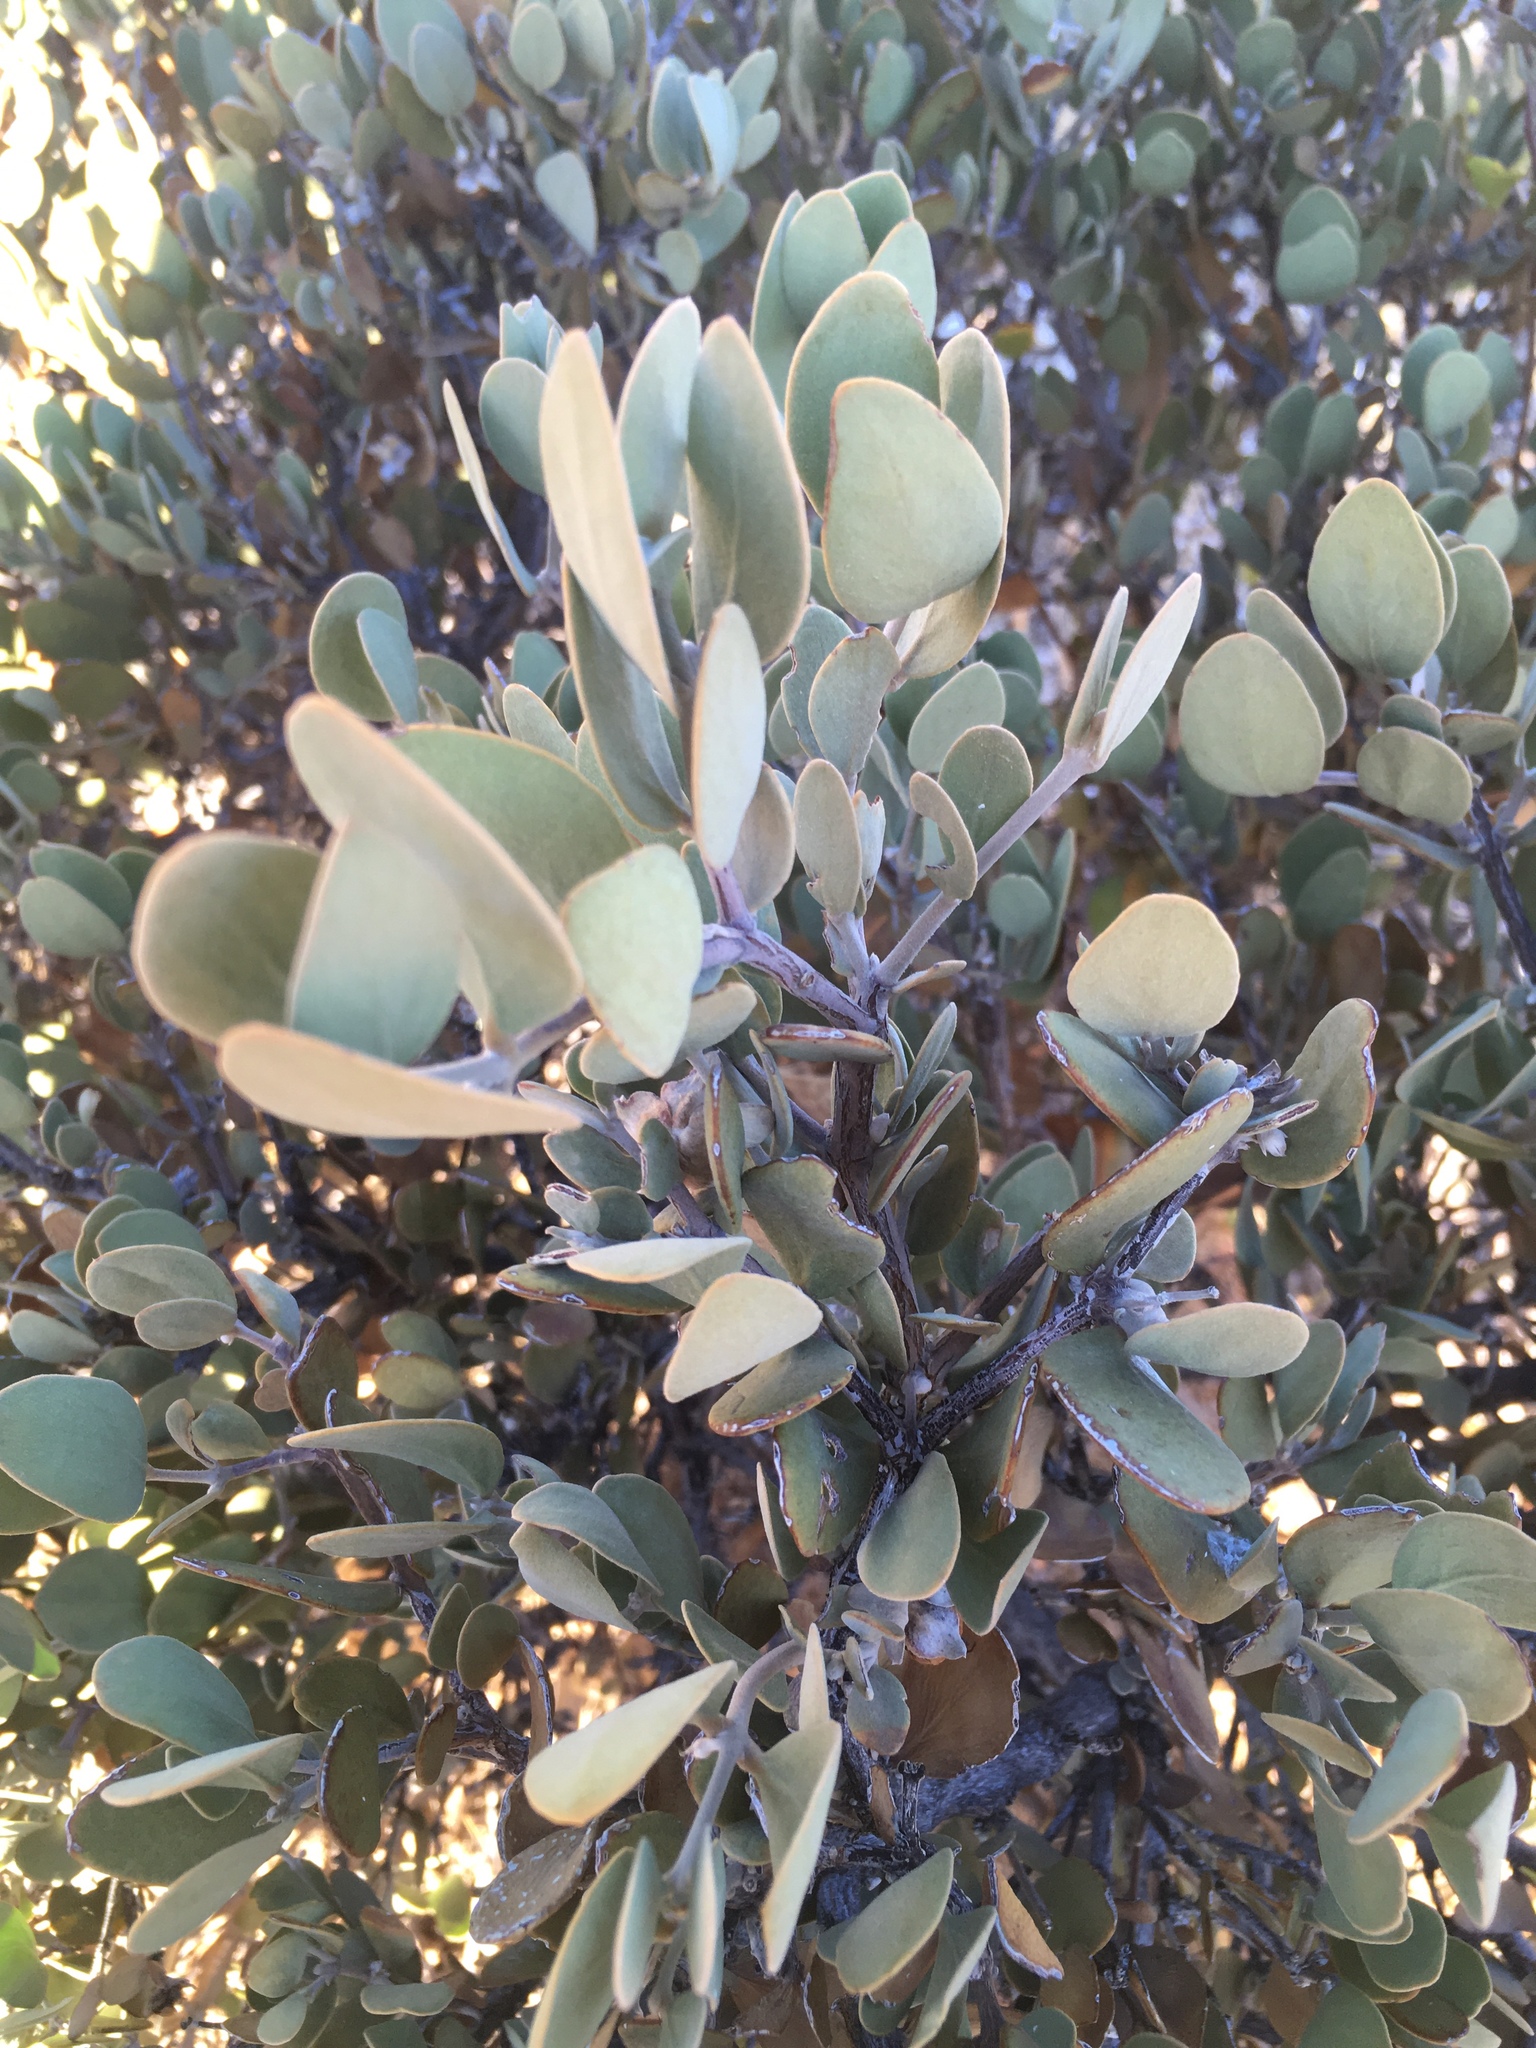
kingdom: Plantae
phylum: Tracheophyta
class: Magnoliopsida
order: Caryophyllales
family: Simmondsiaceae
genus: Simmondsia
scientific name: Simmondsia chinensis
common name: Jojoba
